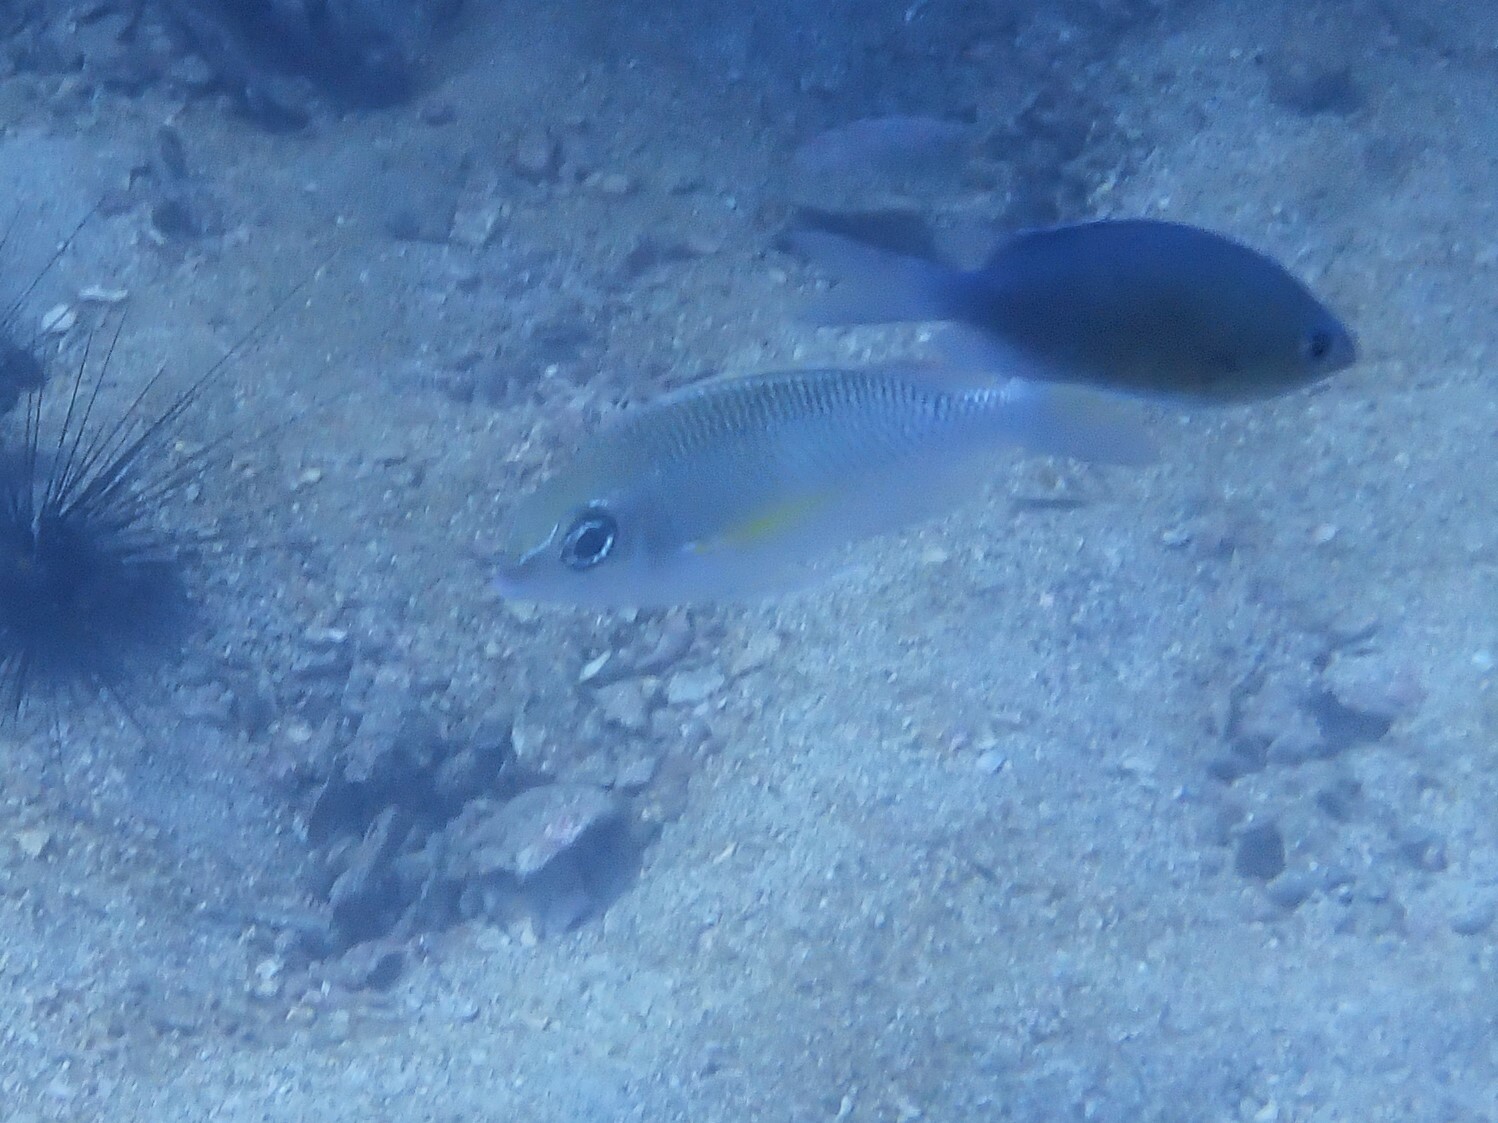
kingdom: Animalia
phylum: Chordata
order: Perciformes
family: Nemipteridae
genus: Scolopsis
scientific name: Scolopsis margaritifera
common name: Pearly monocle bream
